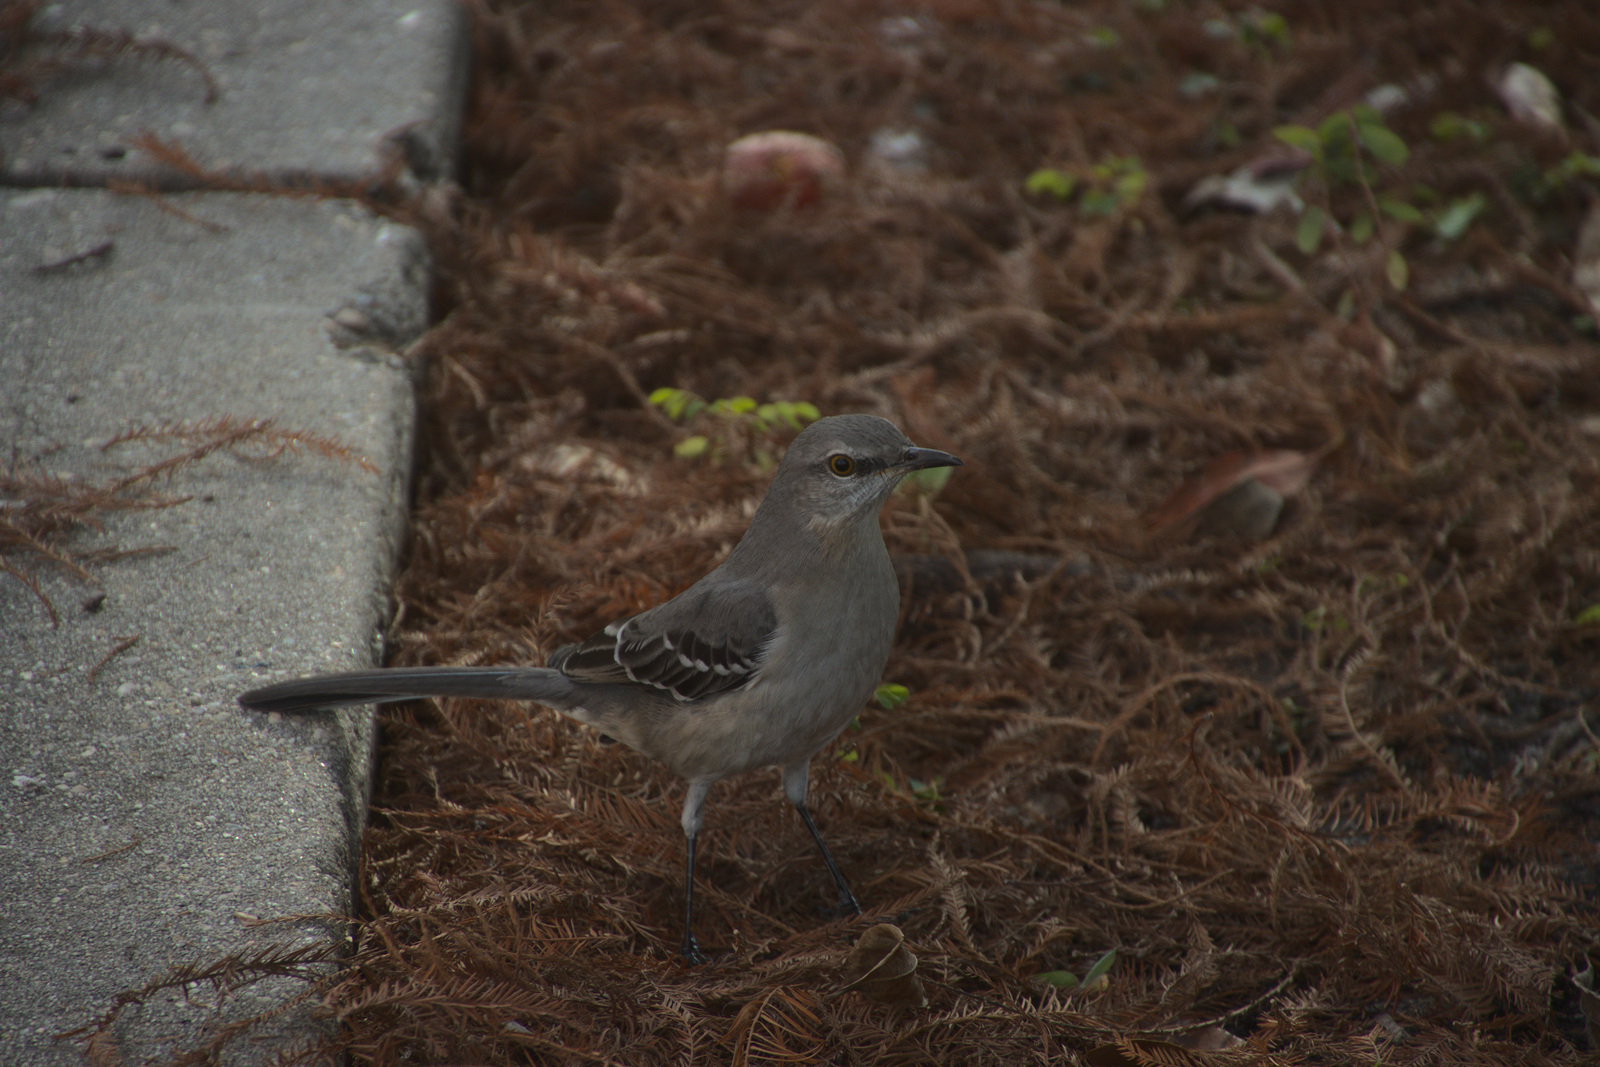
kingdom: Animalia
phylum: Chordata
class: Aves
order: Passeriformes
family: Mimidae
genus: Mimus
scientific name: Mimus polyglottos
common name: Northern mockingbird
